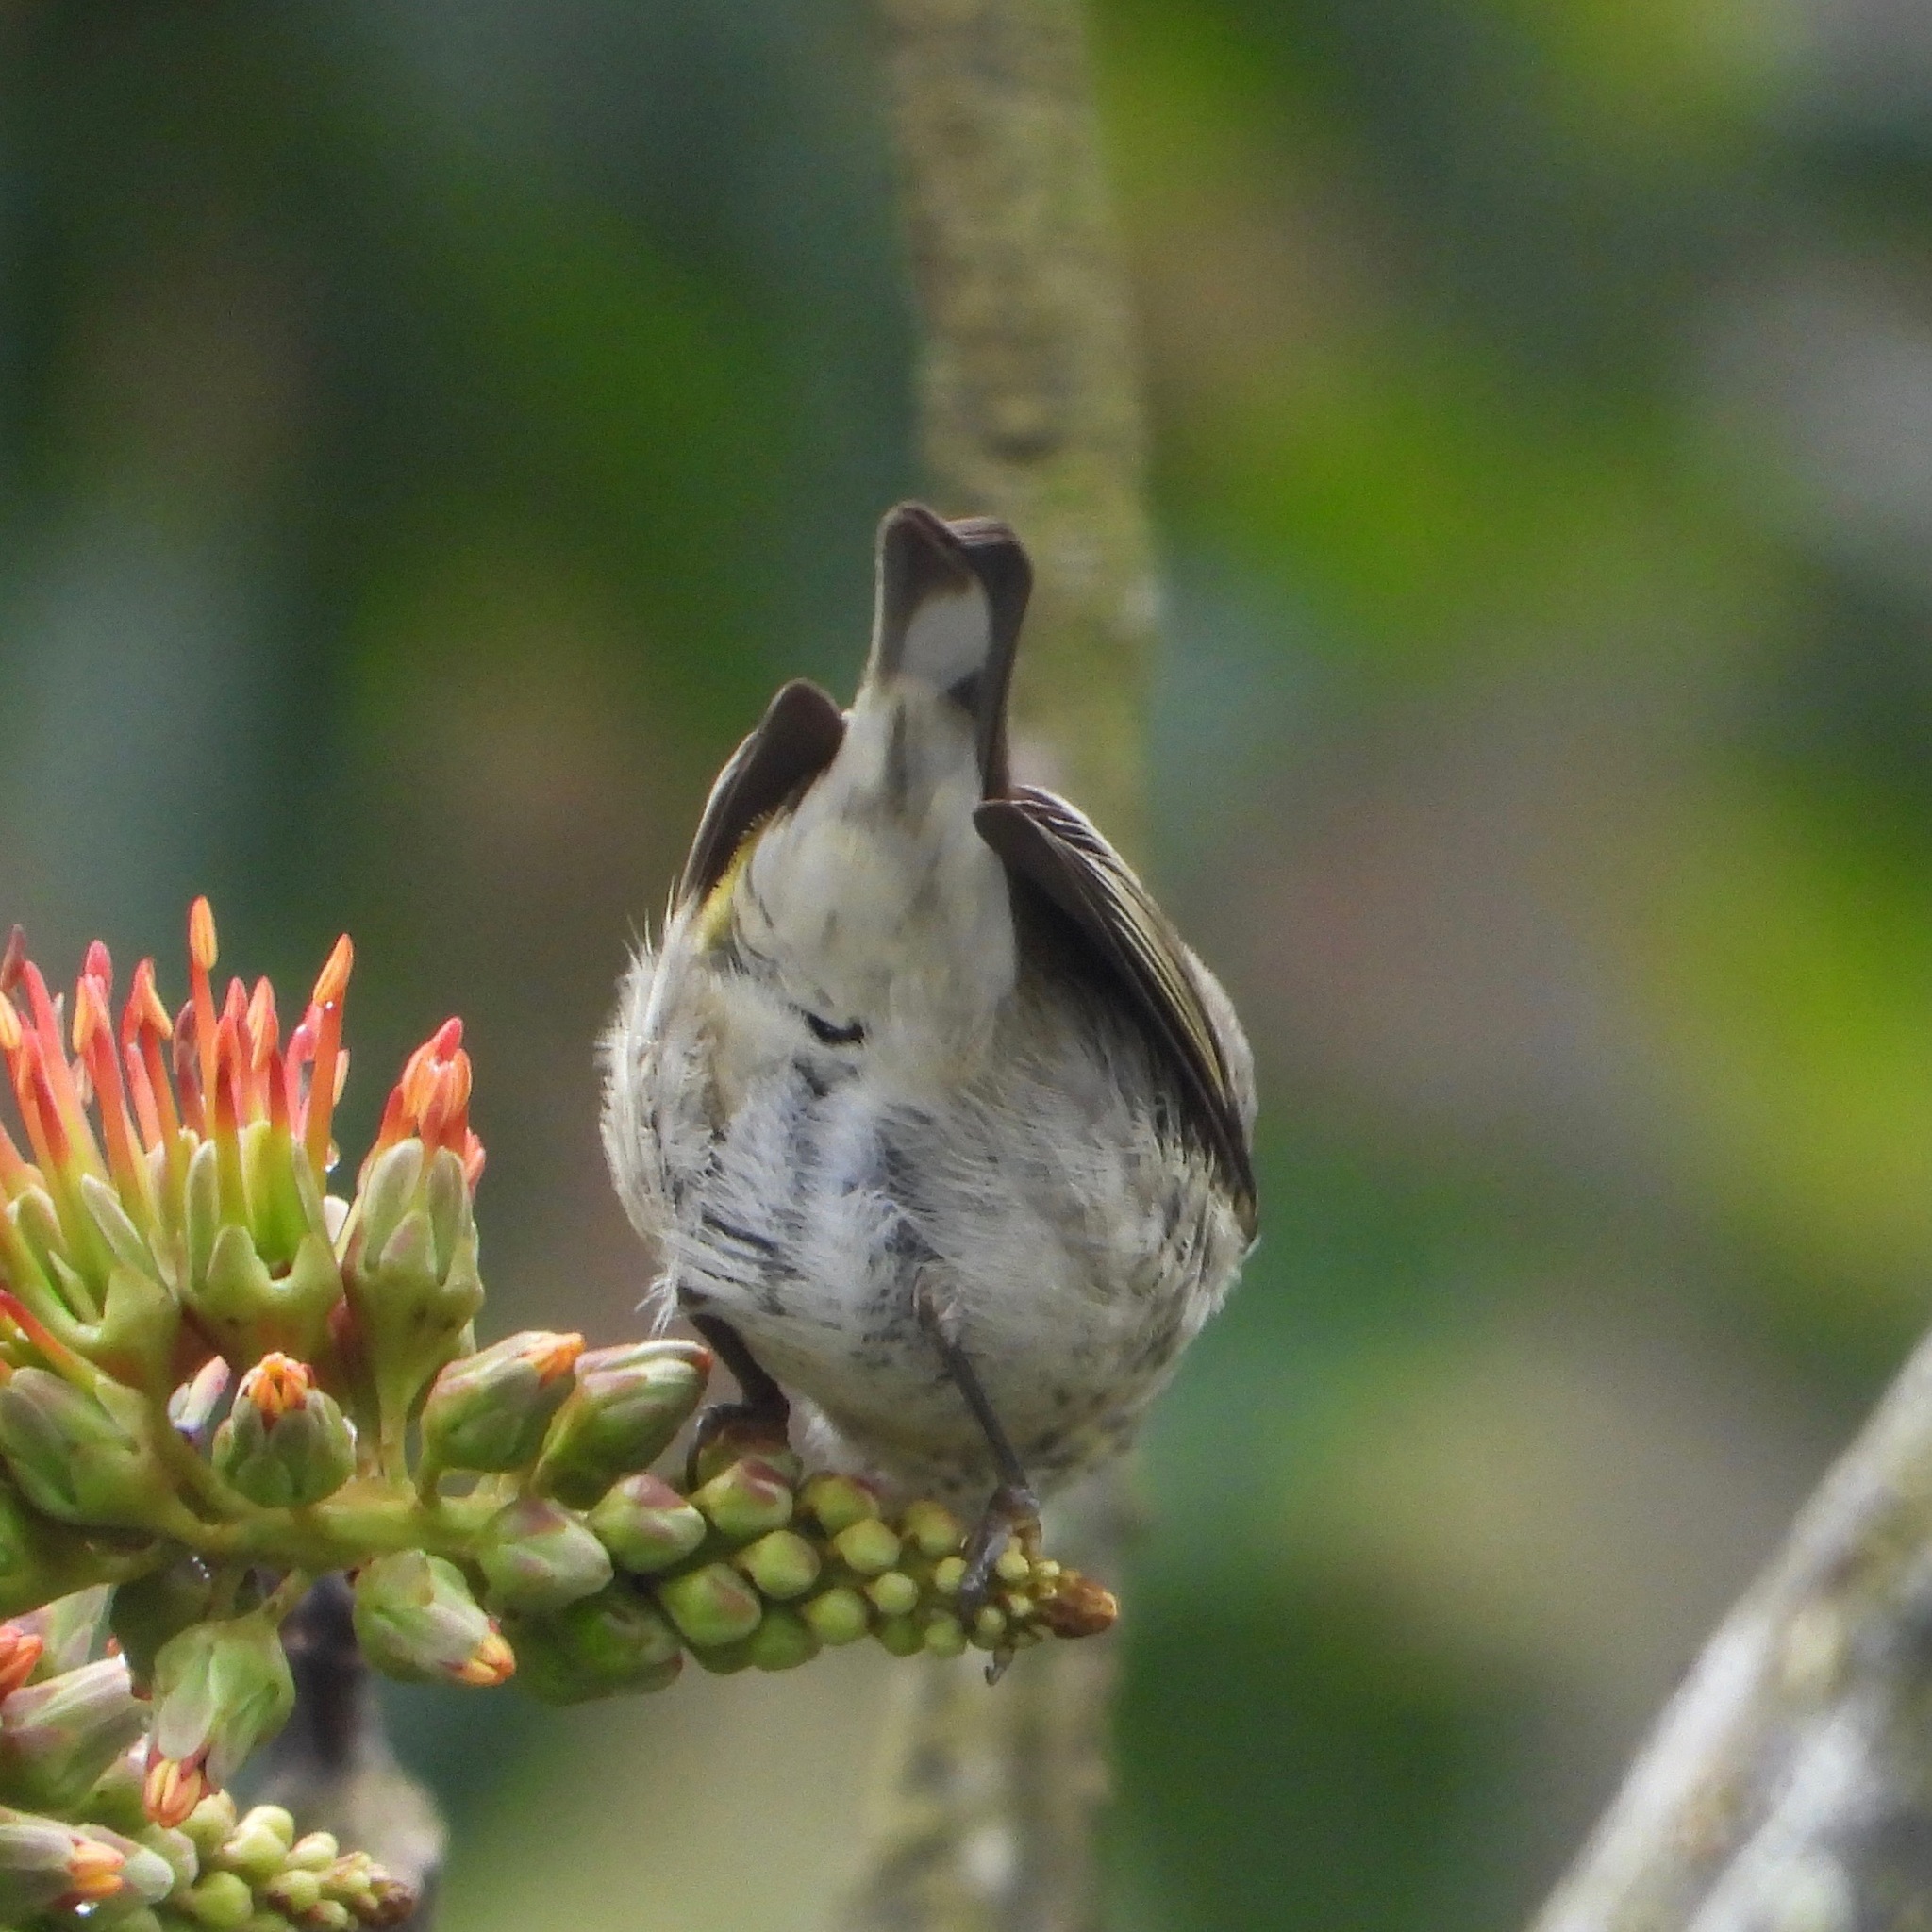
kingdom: Animalia
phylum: Chordata
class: Aves
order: Passeriformes
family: Parulidae
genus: Setophaga
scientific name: Setophaga tigrina
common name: Cape may warbler
